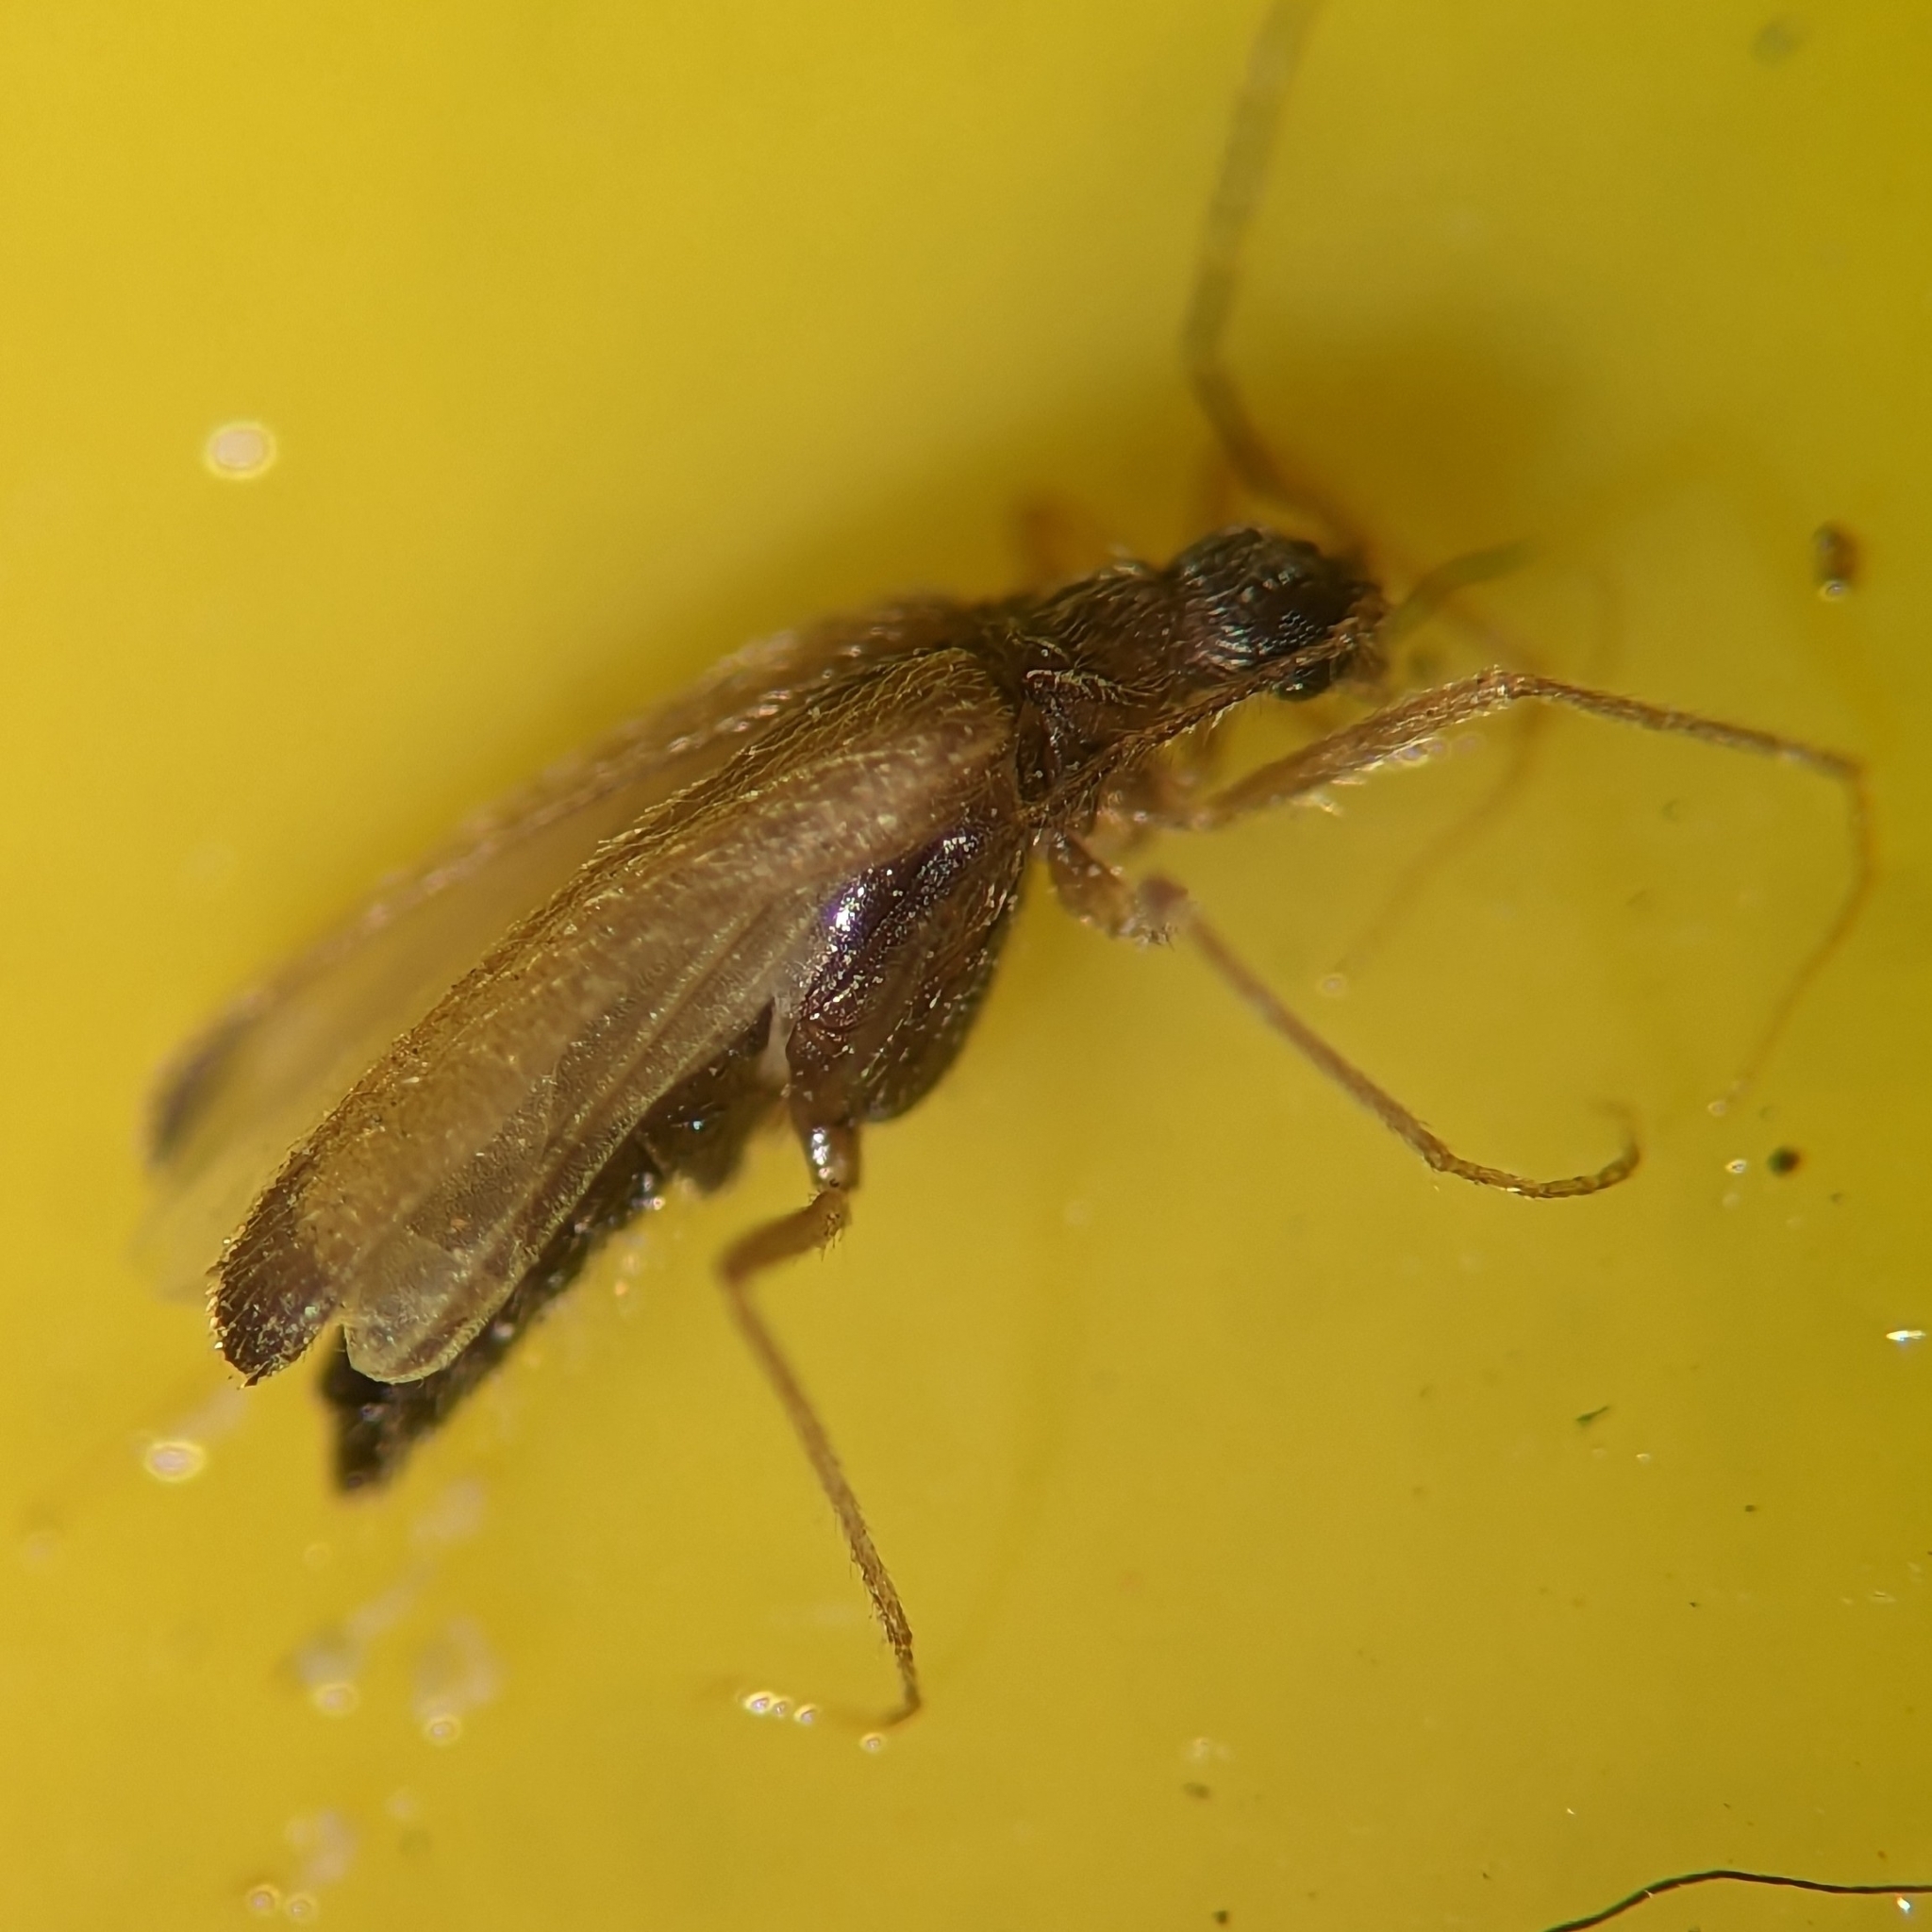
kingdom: Animalia
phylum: Arthropoda
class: Insecta
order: Coleoptera
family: Dermestidae
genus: Thylodrias
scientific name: Thylodrias contractus
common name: Odd beetle
